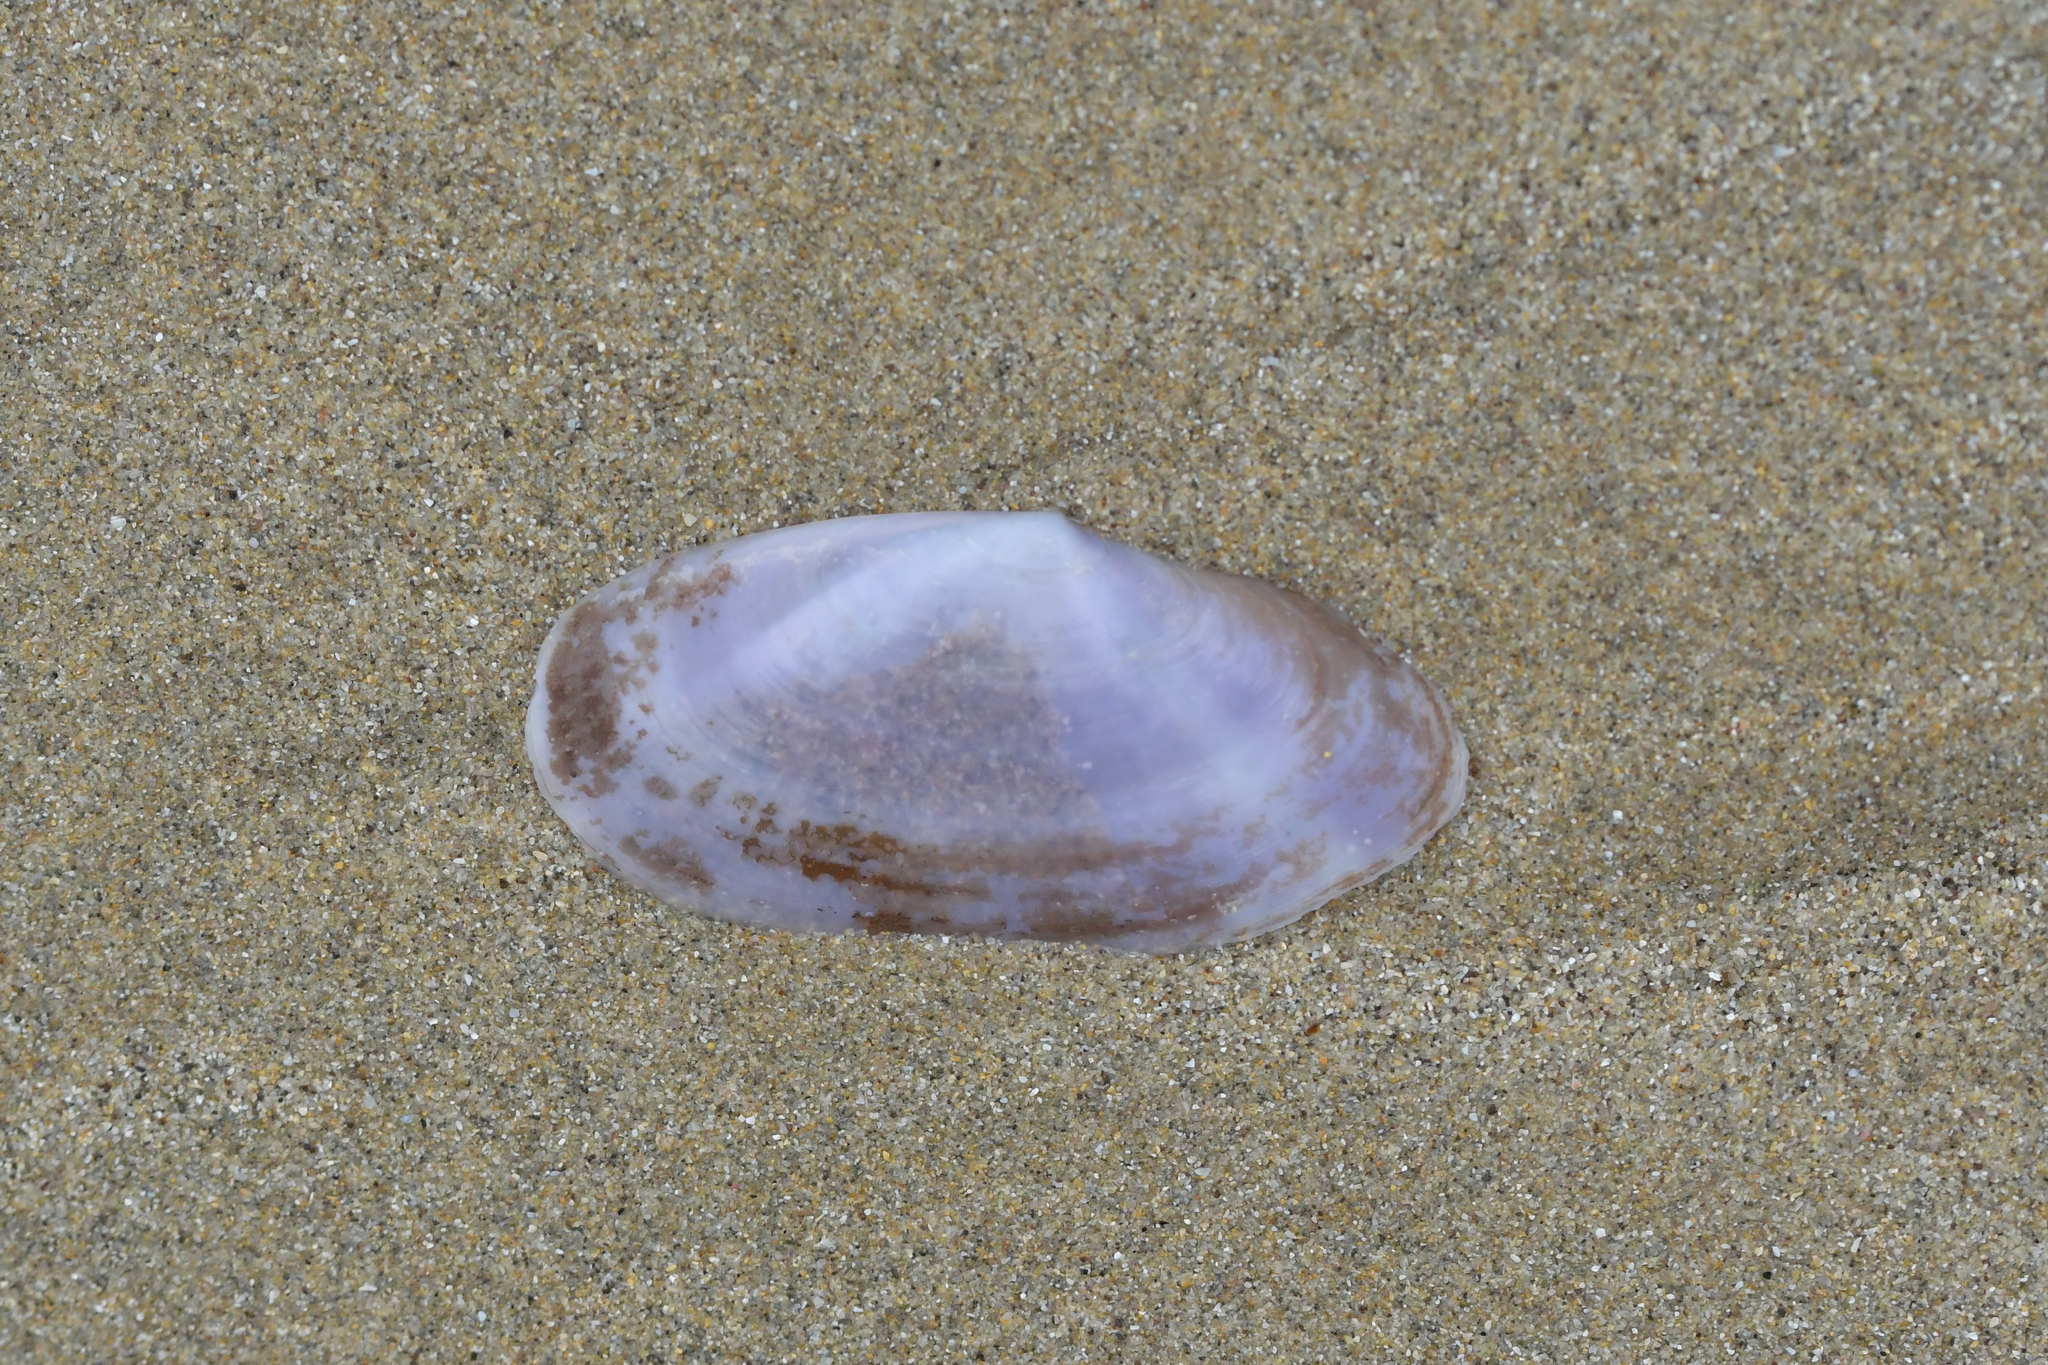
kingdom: Animalia
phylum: Mollusca
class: Bivalvia
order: Cardiida
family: Psammobiidae
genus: Hiatula
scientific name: Hiatula nitida
